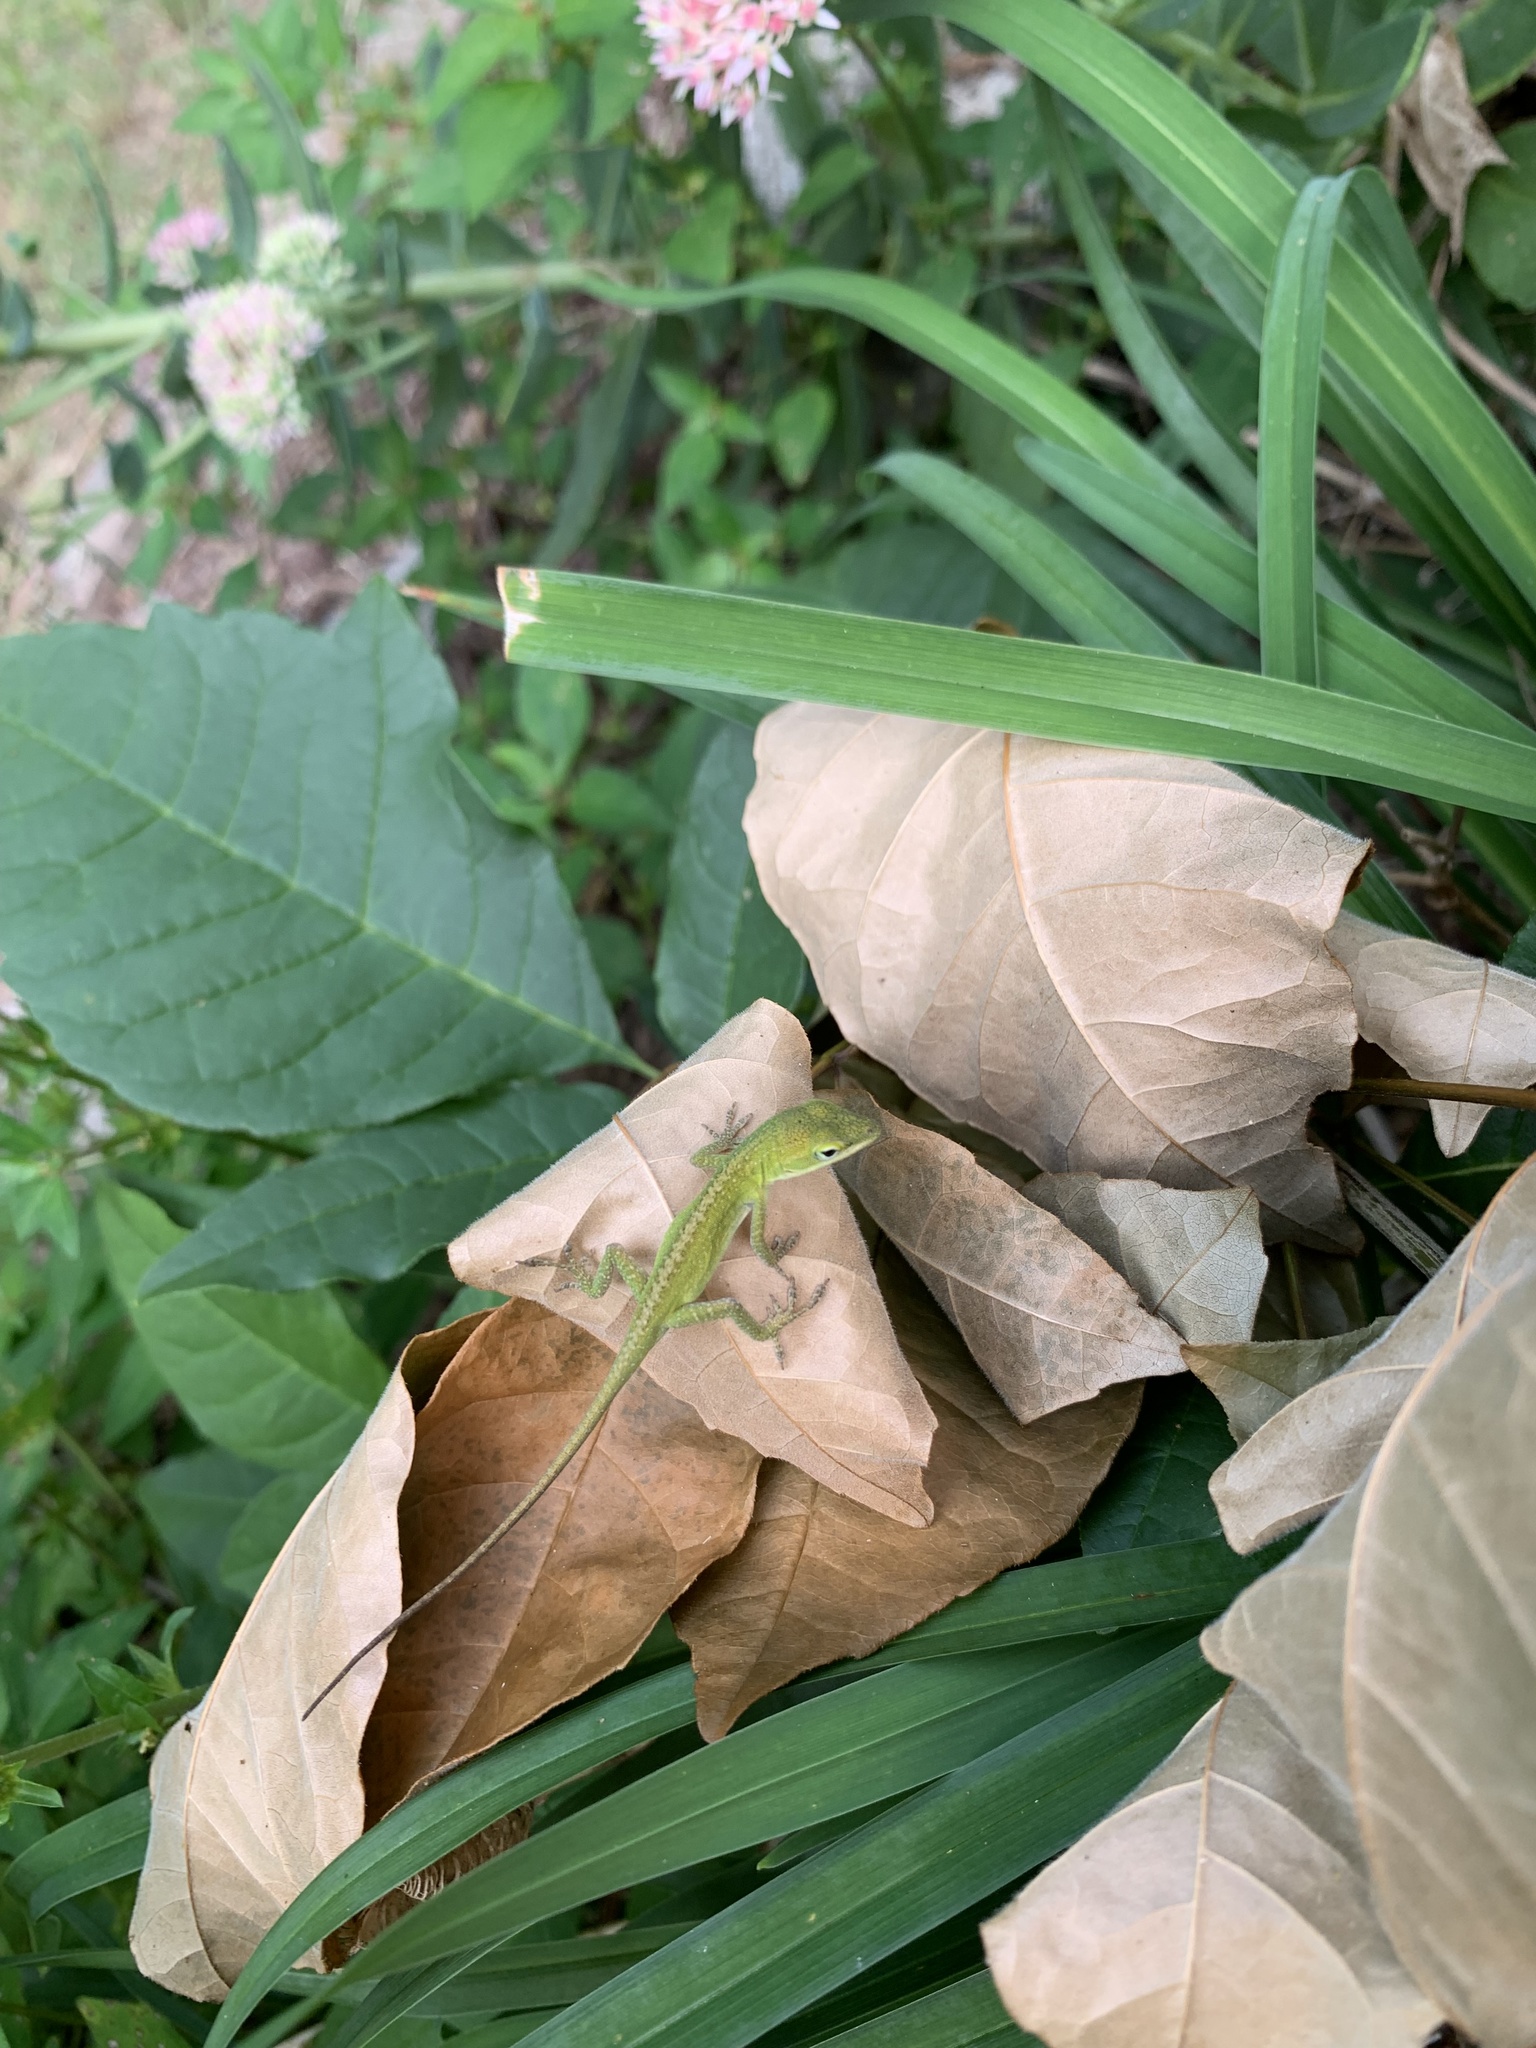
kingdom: Animalia
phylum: Chordata
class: Squamata
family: Dactyloidae
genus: Anolis
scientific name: Anolis carolinensis
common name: Green anole
